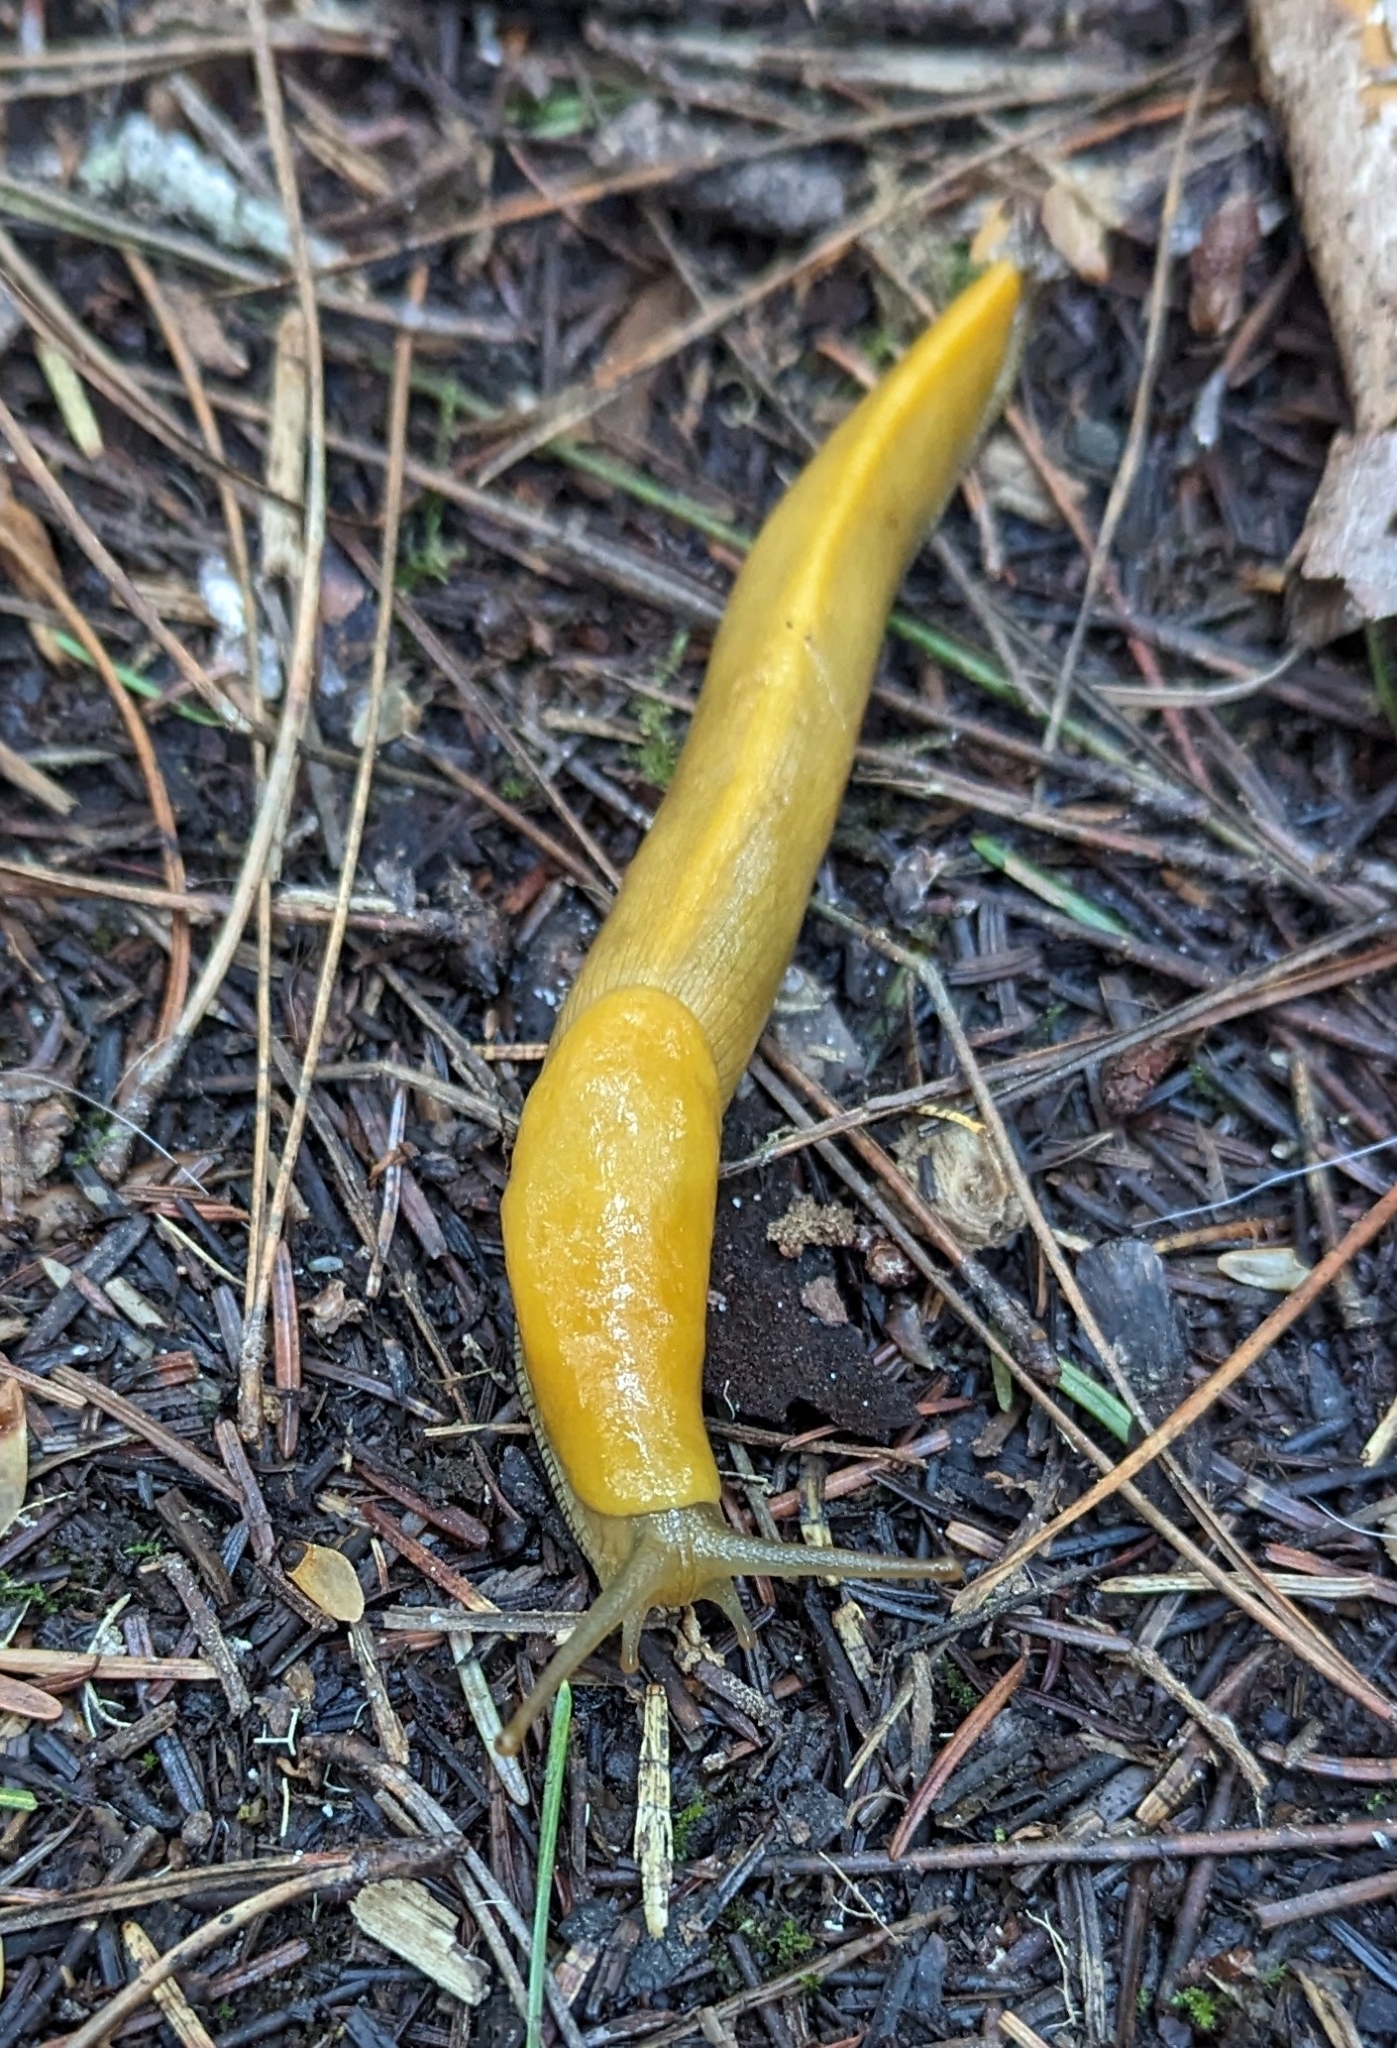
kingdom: Animalia
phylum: Mollusca
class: Gastropoda
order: Stylommatophora
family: Ariolimacidae
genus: Ariolimax
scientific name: Ariolimax buttoni
